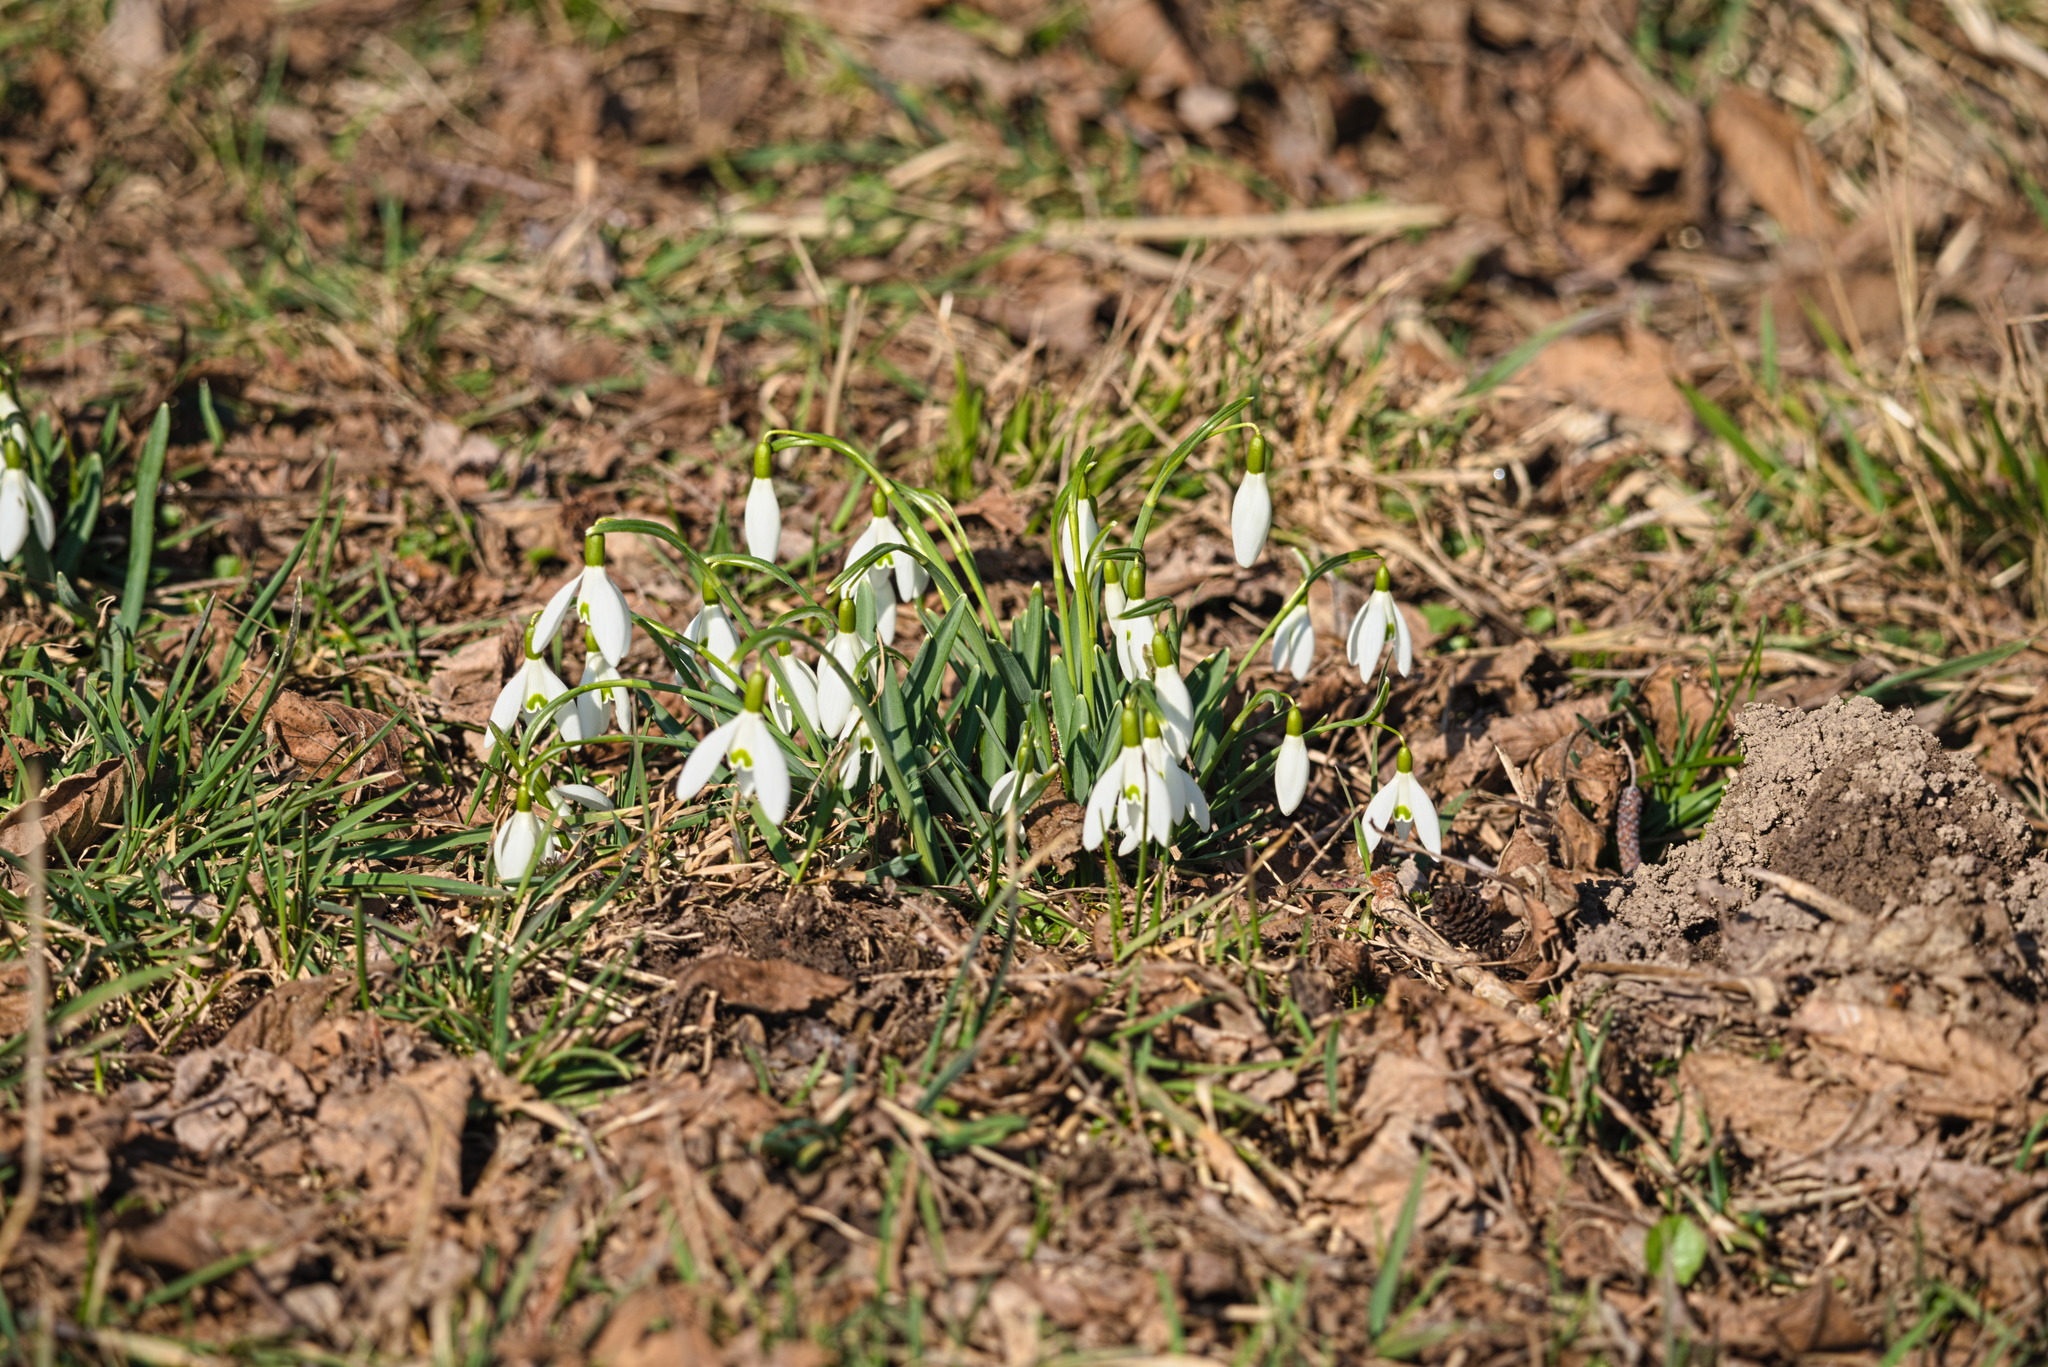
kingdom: Plantae
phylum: Tracheophyta
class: Liliopsida
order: Asparagales
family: Amaryllidaceae
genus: Galanthus
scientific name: Galanthus nivalis
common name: Snowdrop
